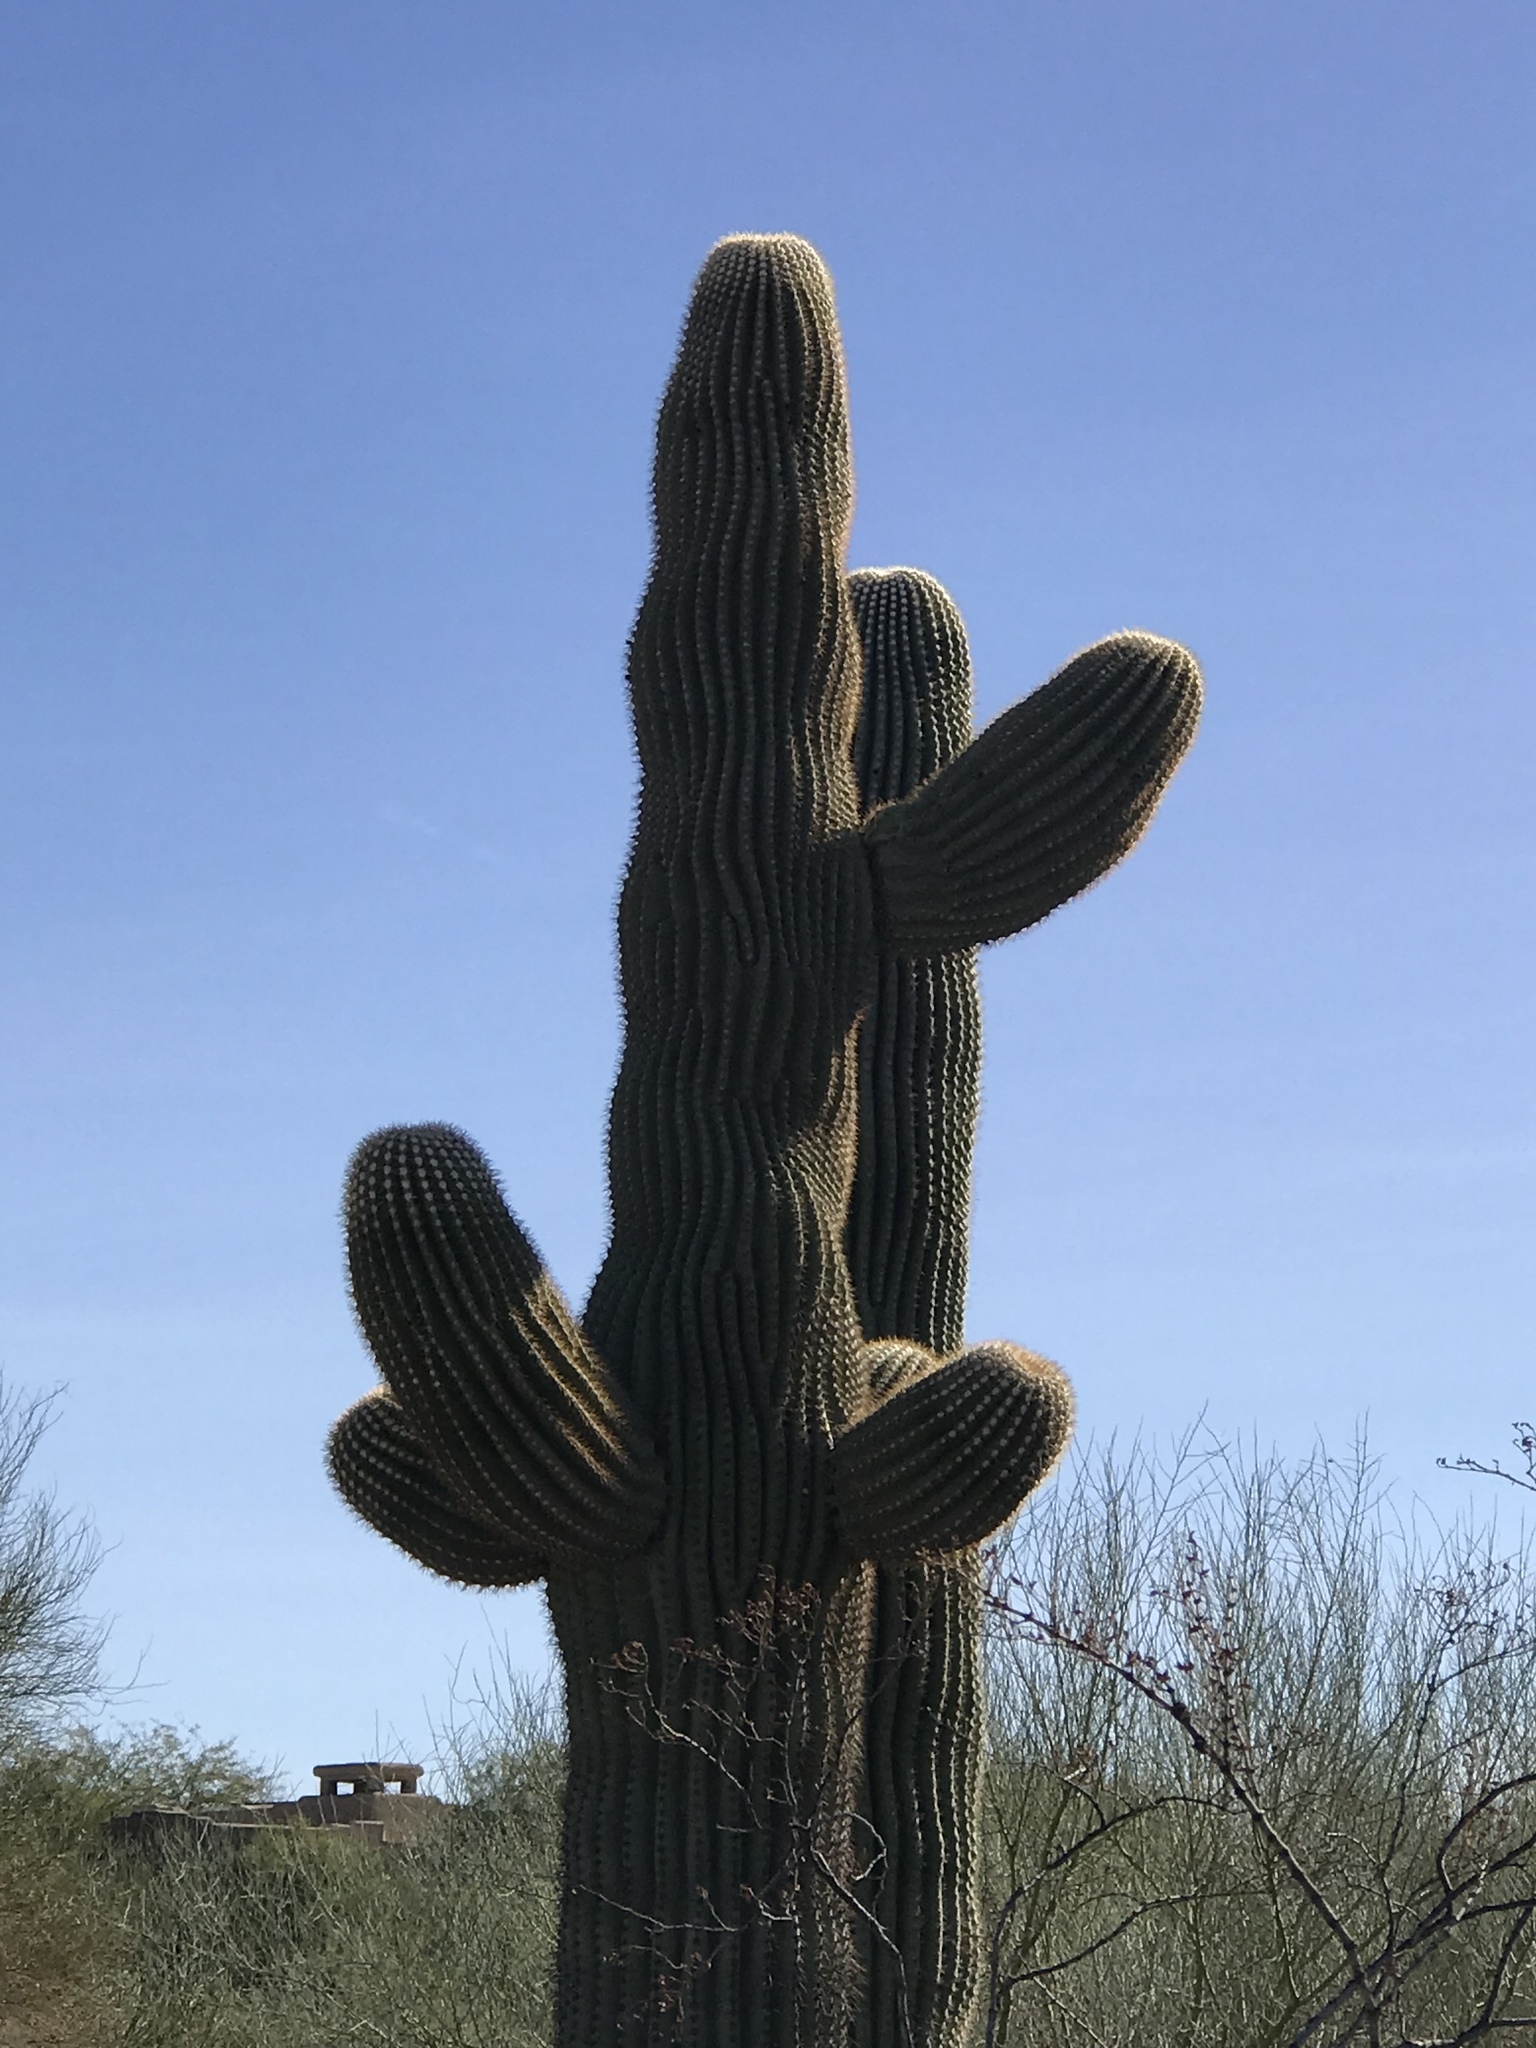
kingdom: Plantae
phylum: Tracheophyta
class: Magnoliopsida
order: Caryophyllales
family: Cactaceae
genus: Carnegiea
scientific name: Carnegiea gigantea
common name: Saguaro
